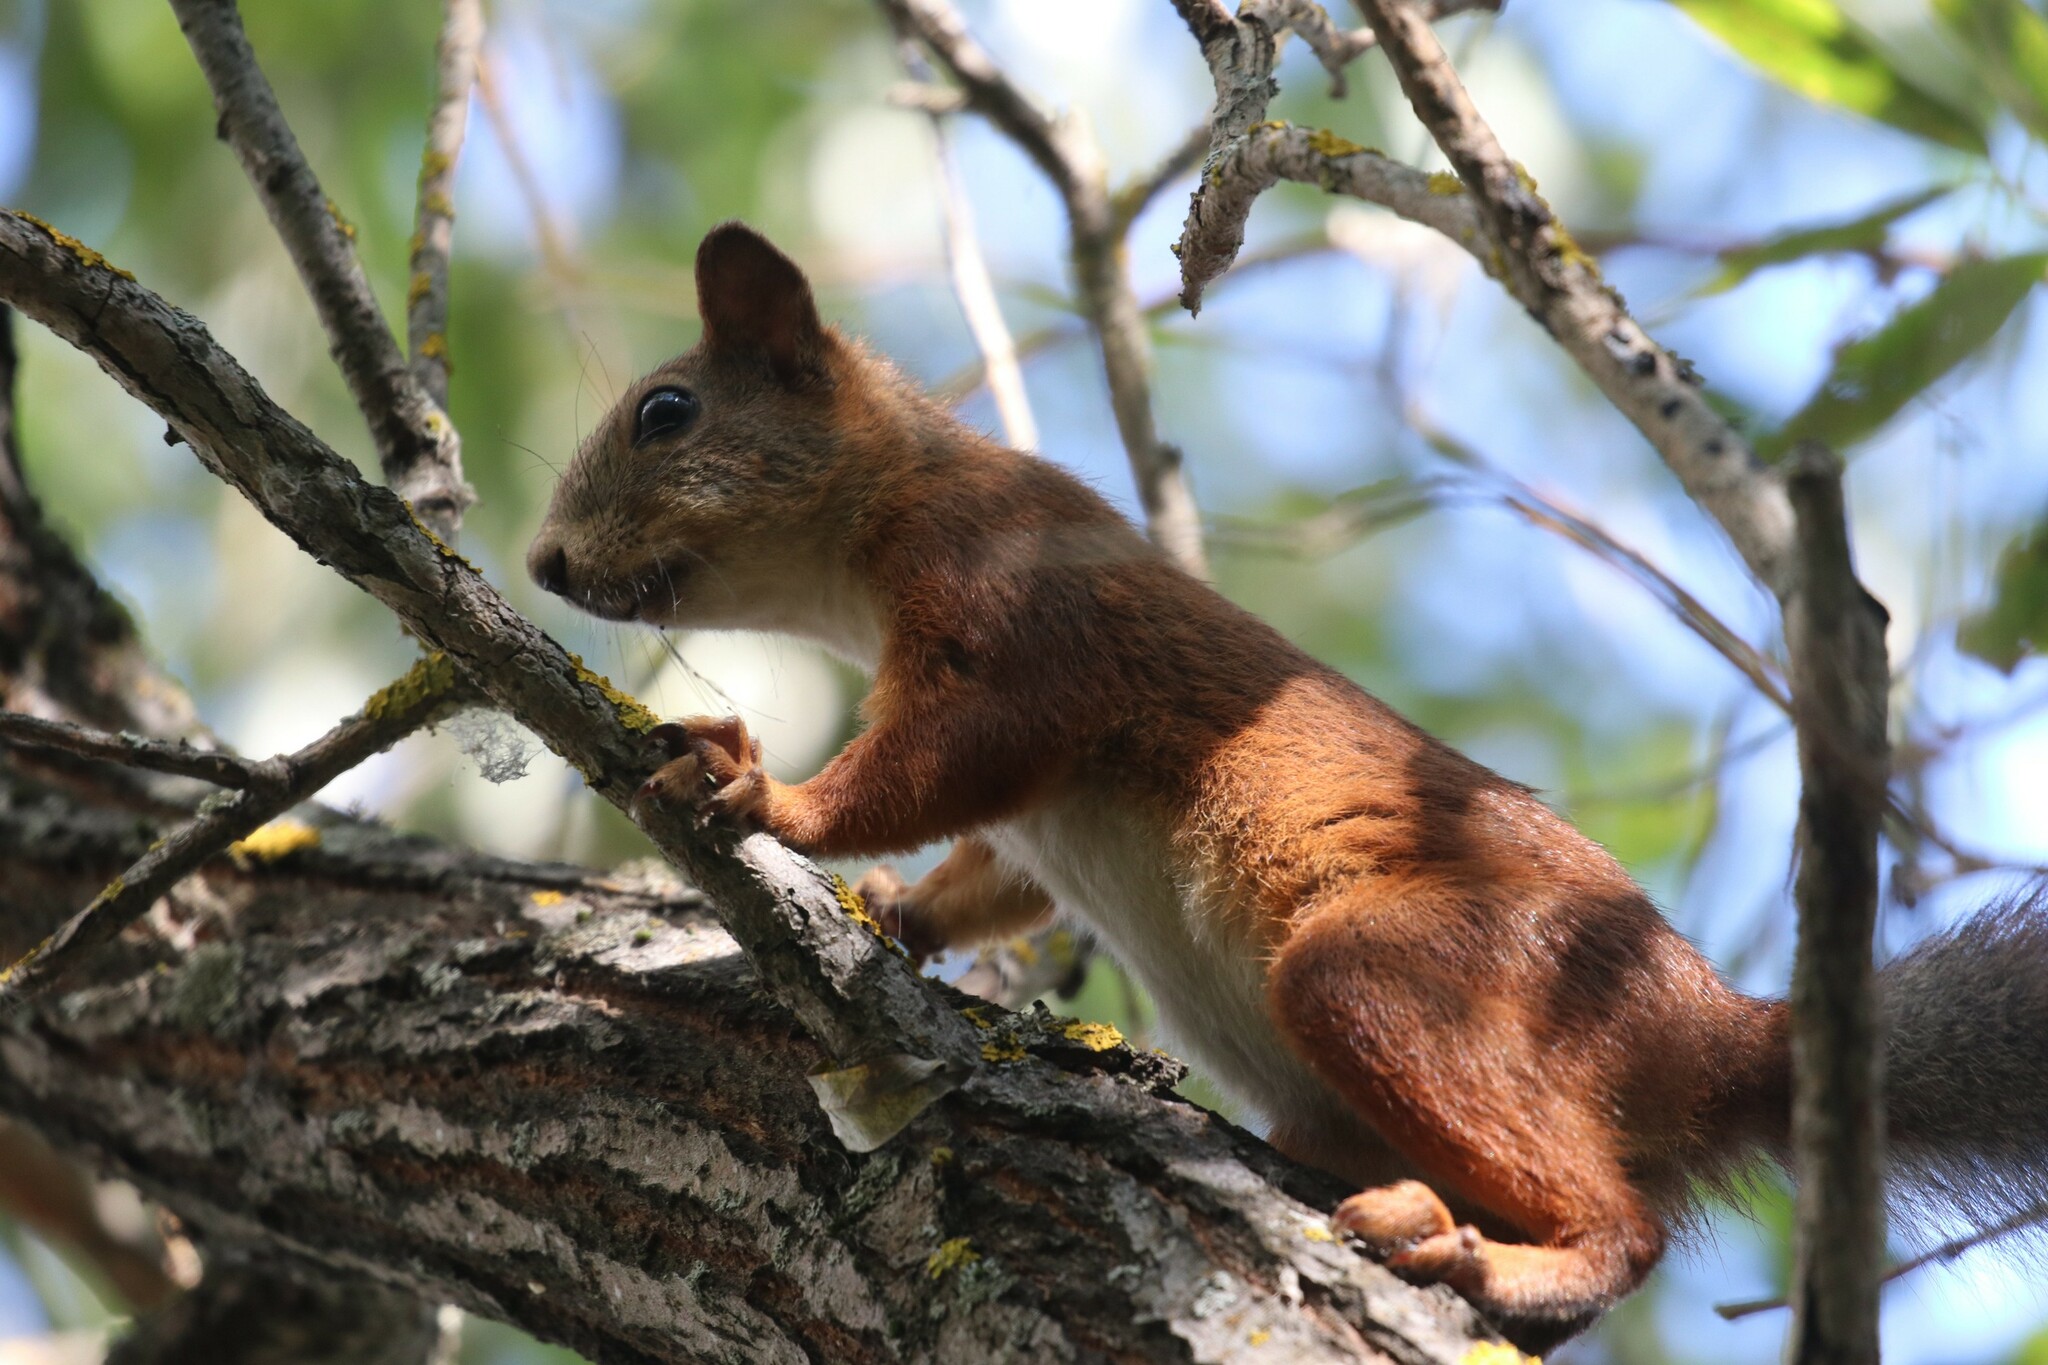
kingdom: Animalia
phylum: Chordata
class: Mammalia
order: Rodentia
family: Sciuridae
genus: Sciurus
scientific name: Sciurus vulgaris
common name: Eurasian red squirrel
